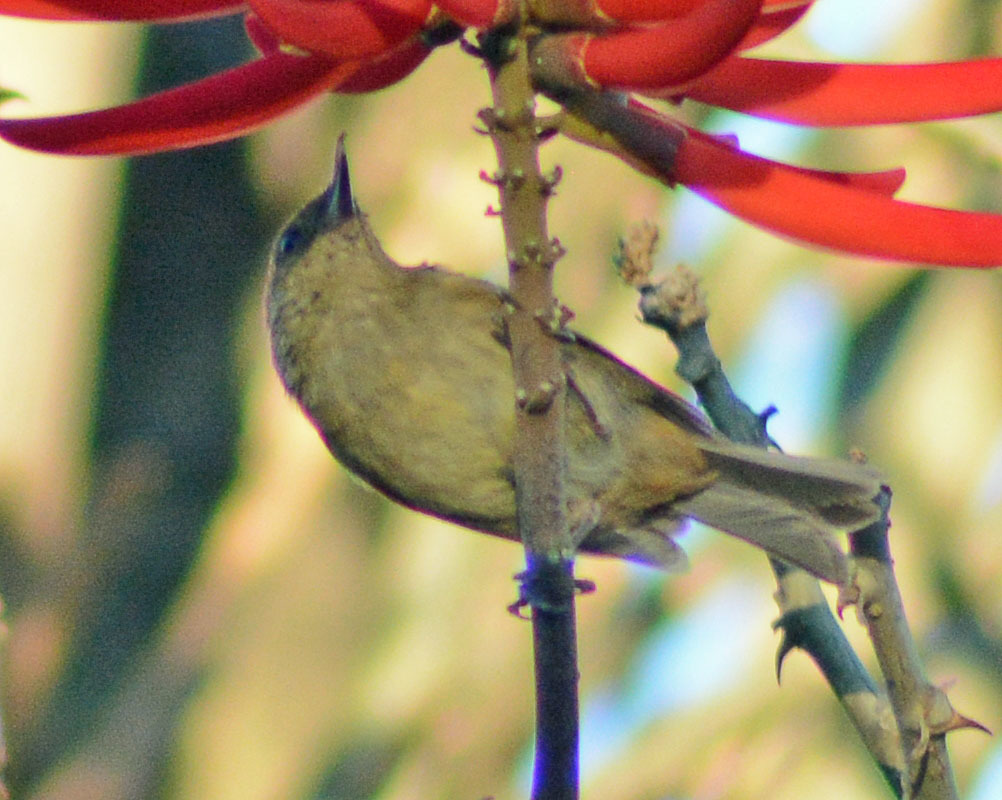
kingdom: Animalia
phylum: Chordata
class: Aves
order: Passeriformes
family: Thraupidae
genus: Diglossa
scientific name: Diglossa baritula
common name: Cinnamon-bellied flowerpiercer
